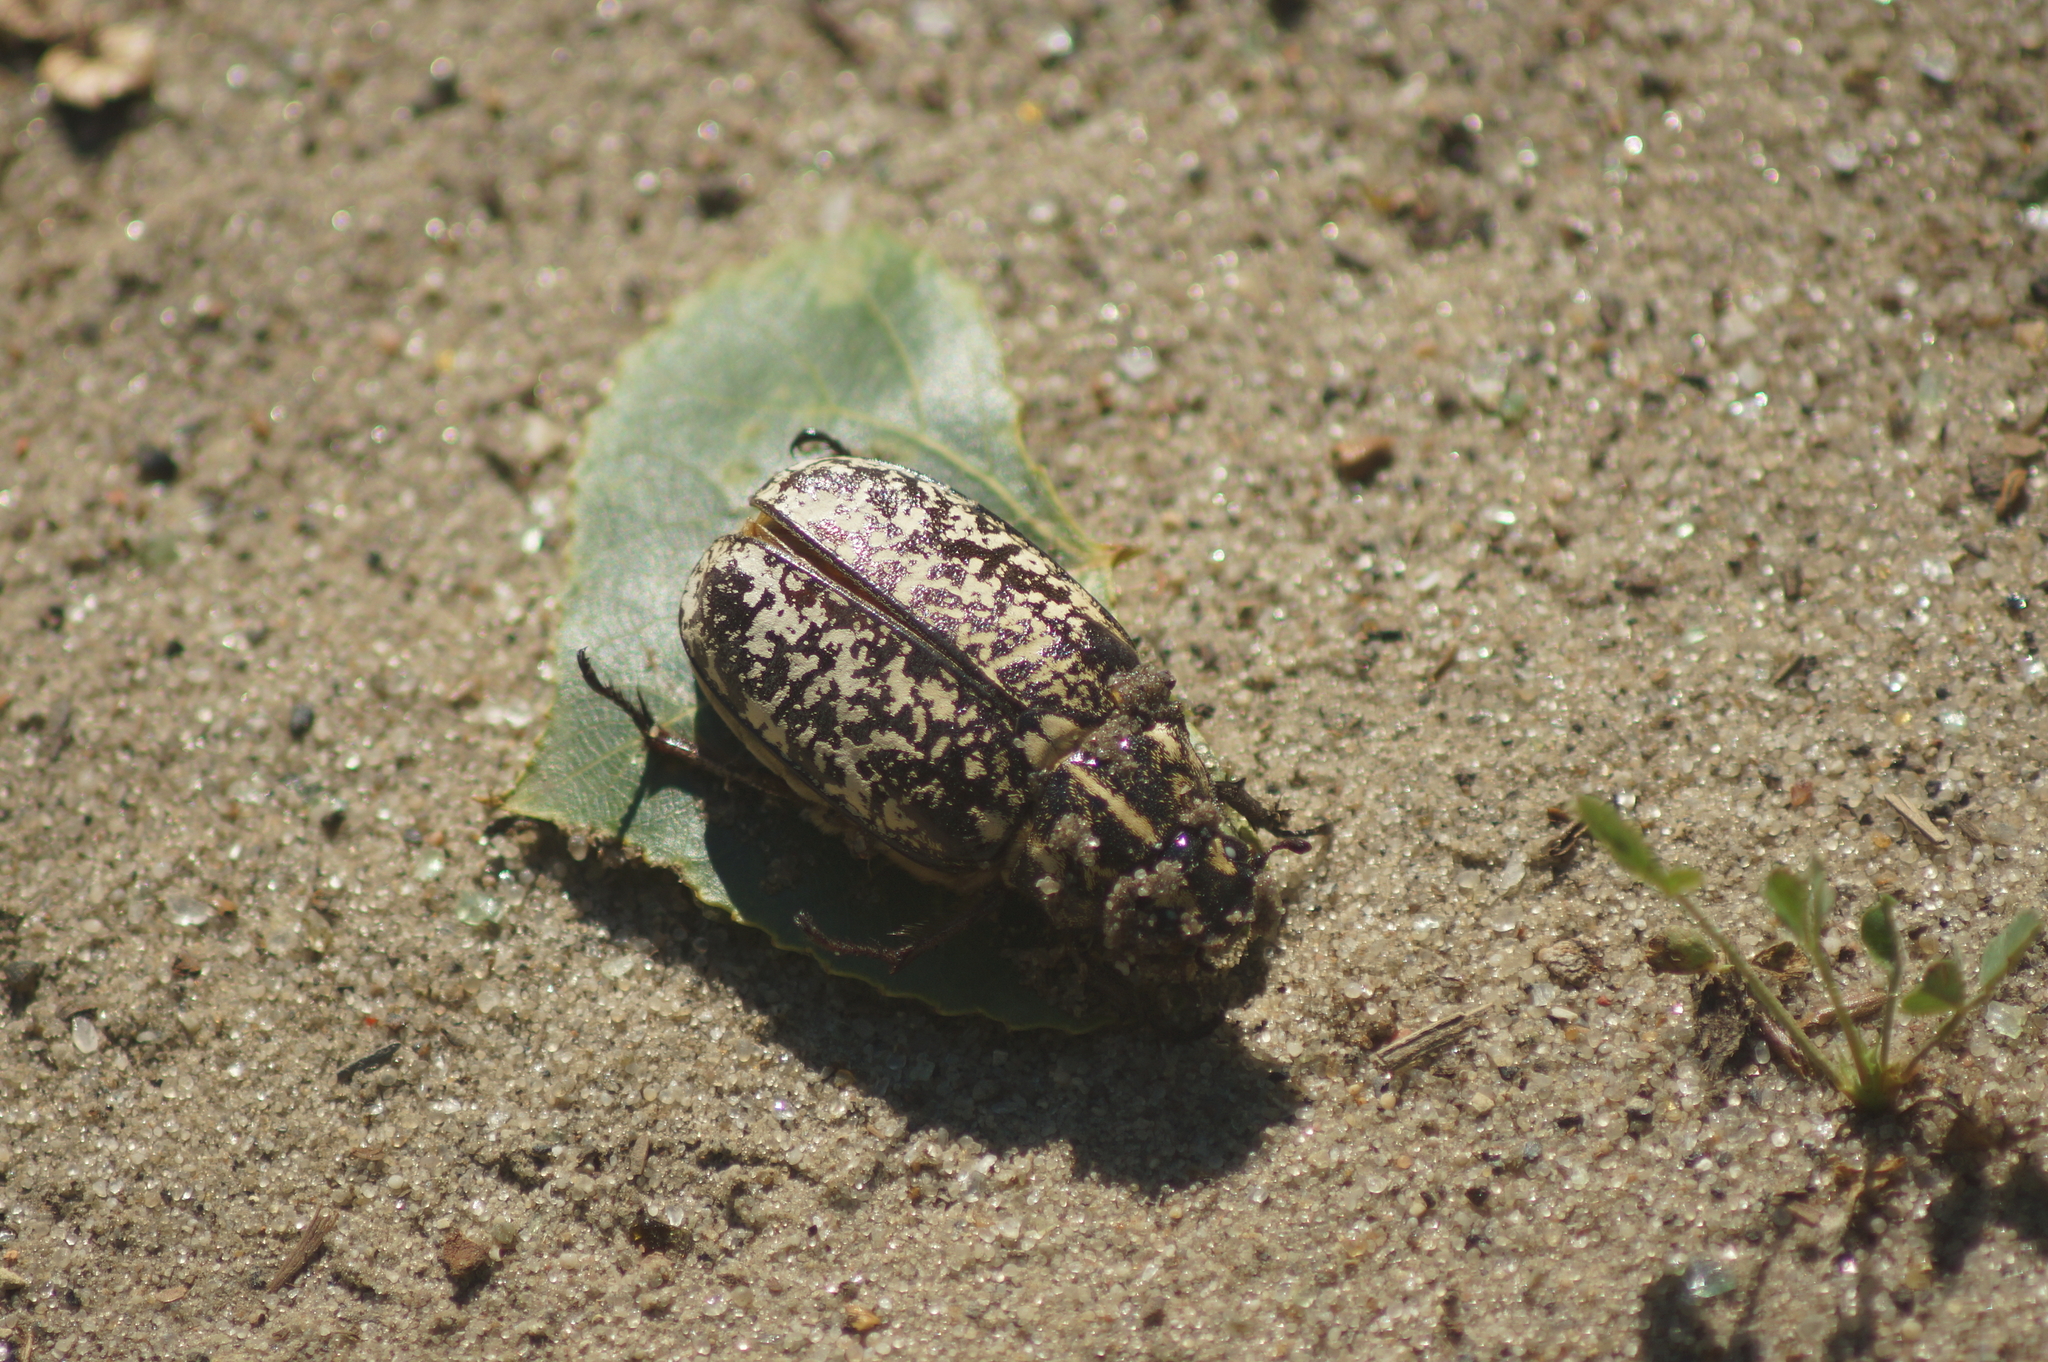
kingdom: Animalia
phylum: Arthropoda
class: Insecta
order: Coleoptera
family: Scarabaeidae
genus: Polyphylla
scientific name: Polyphylla fullo
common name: Pine chafer
